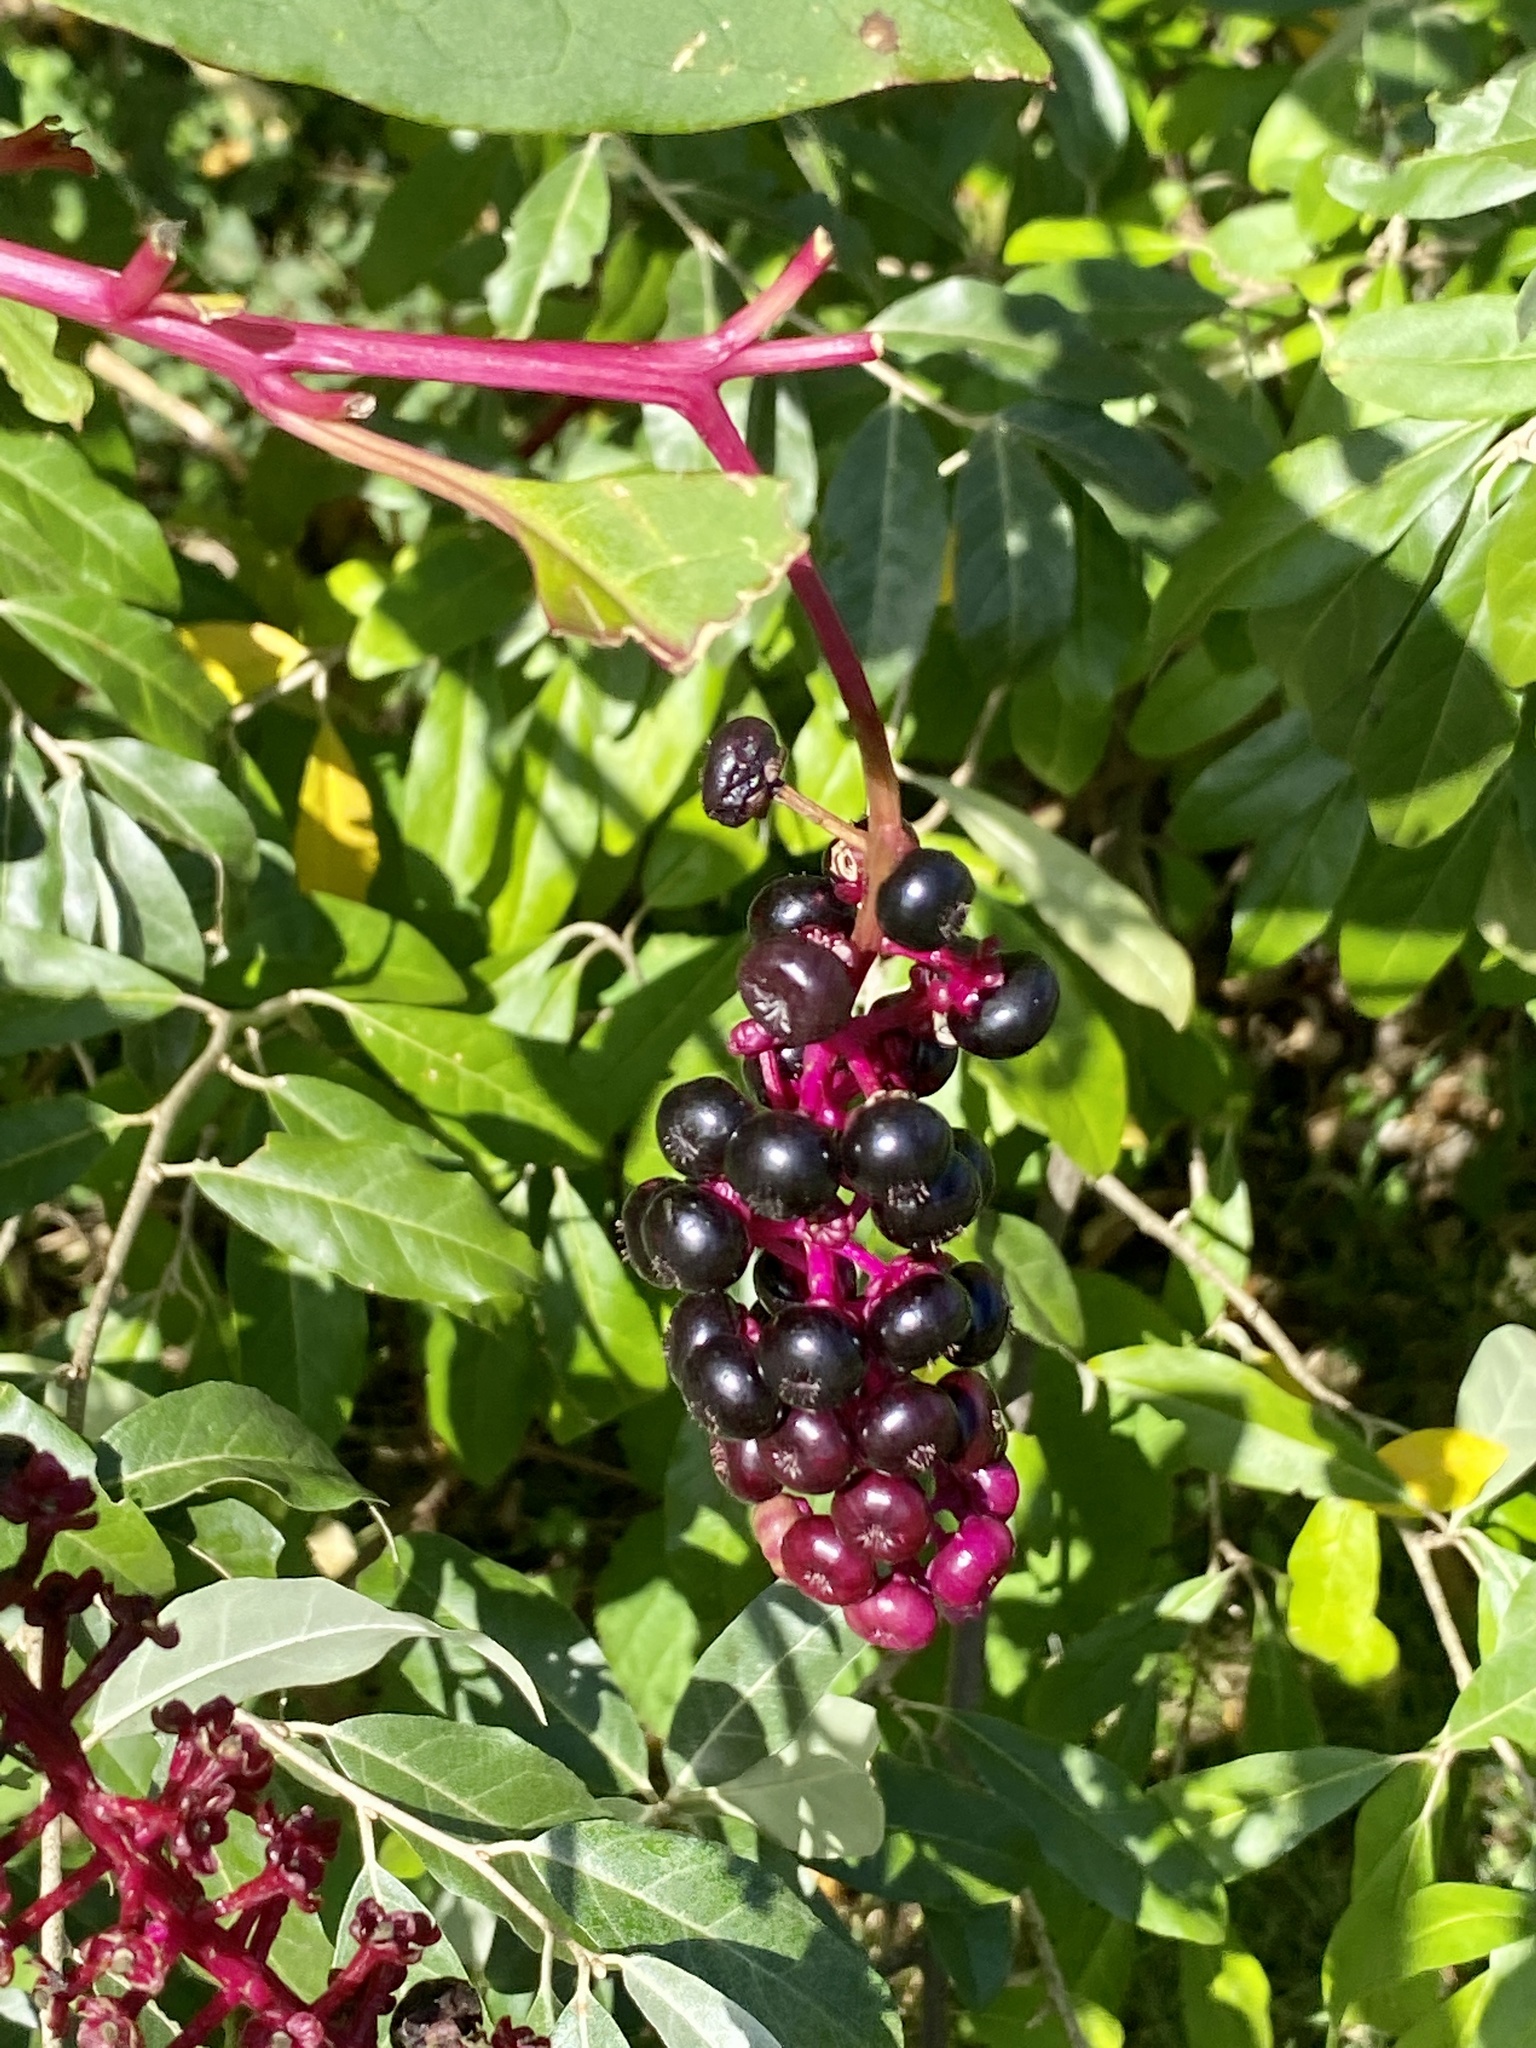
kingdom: Plantae
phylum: Tracheophyta
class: Magnoliopsida
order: Caryophyllales
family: Phytolaccaceae
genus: Phytolacca
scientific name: Phytolacca americana
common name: American pokeweed
